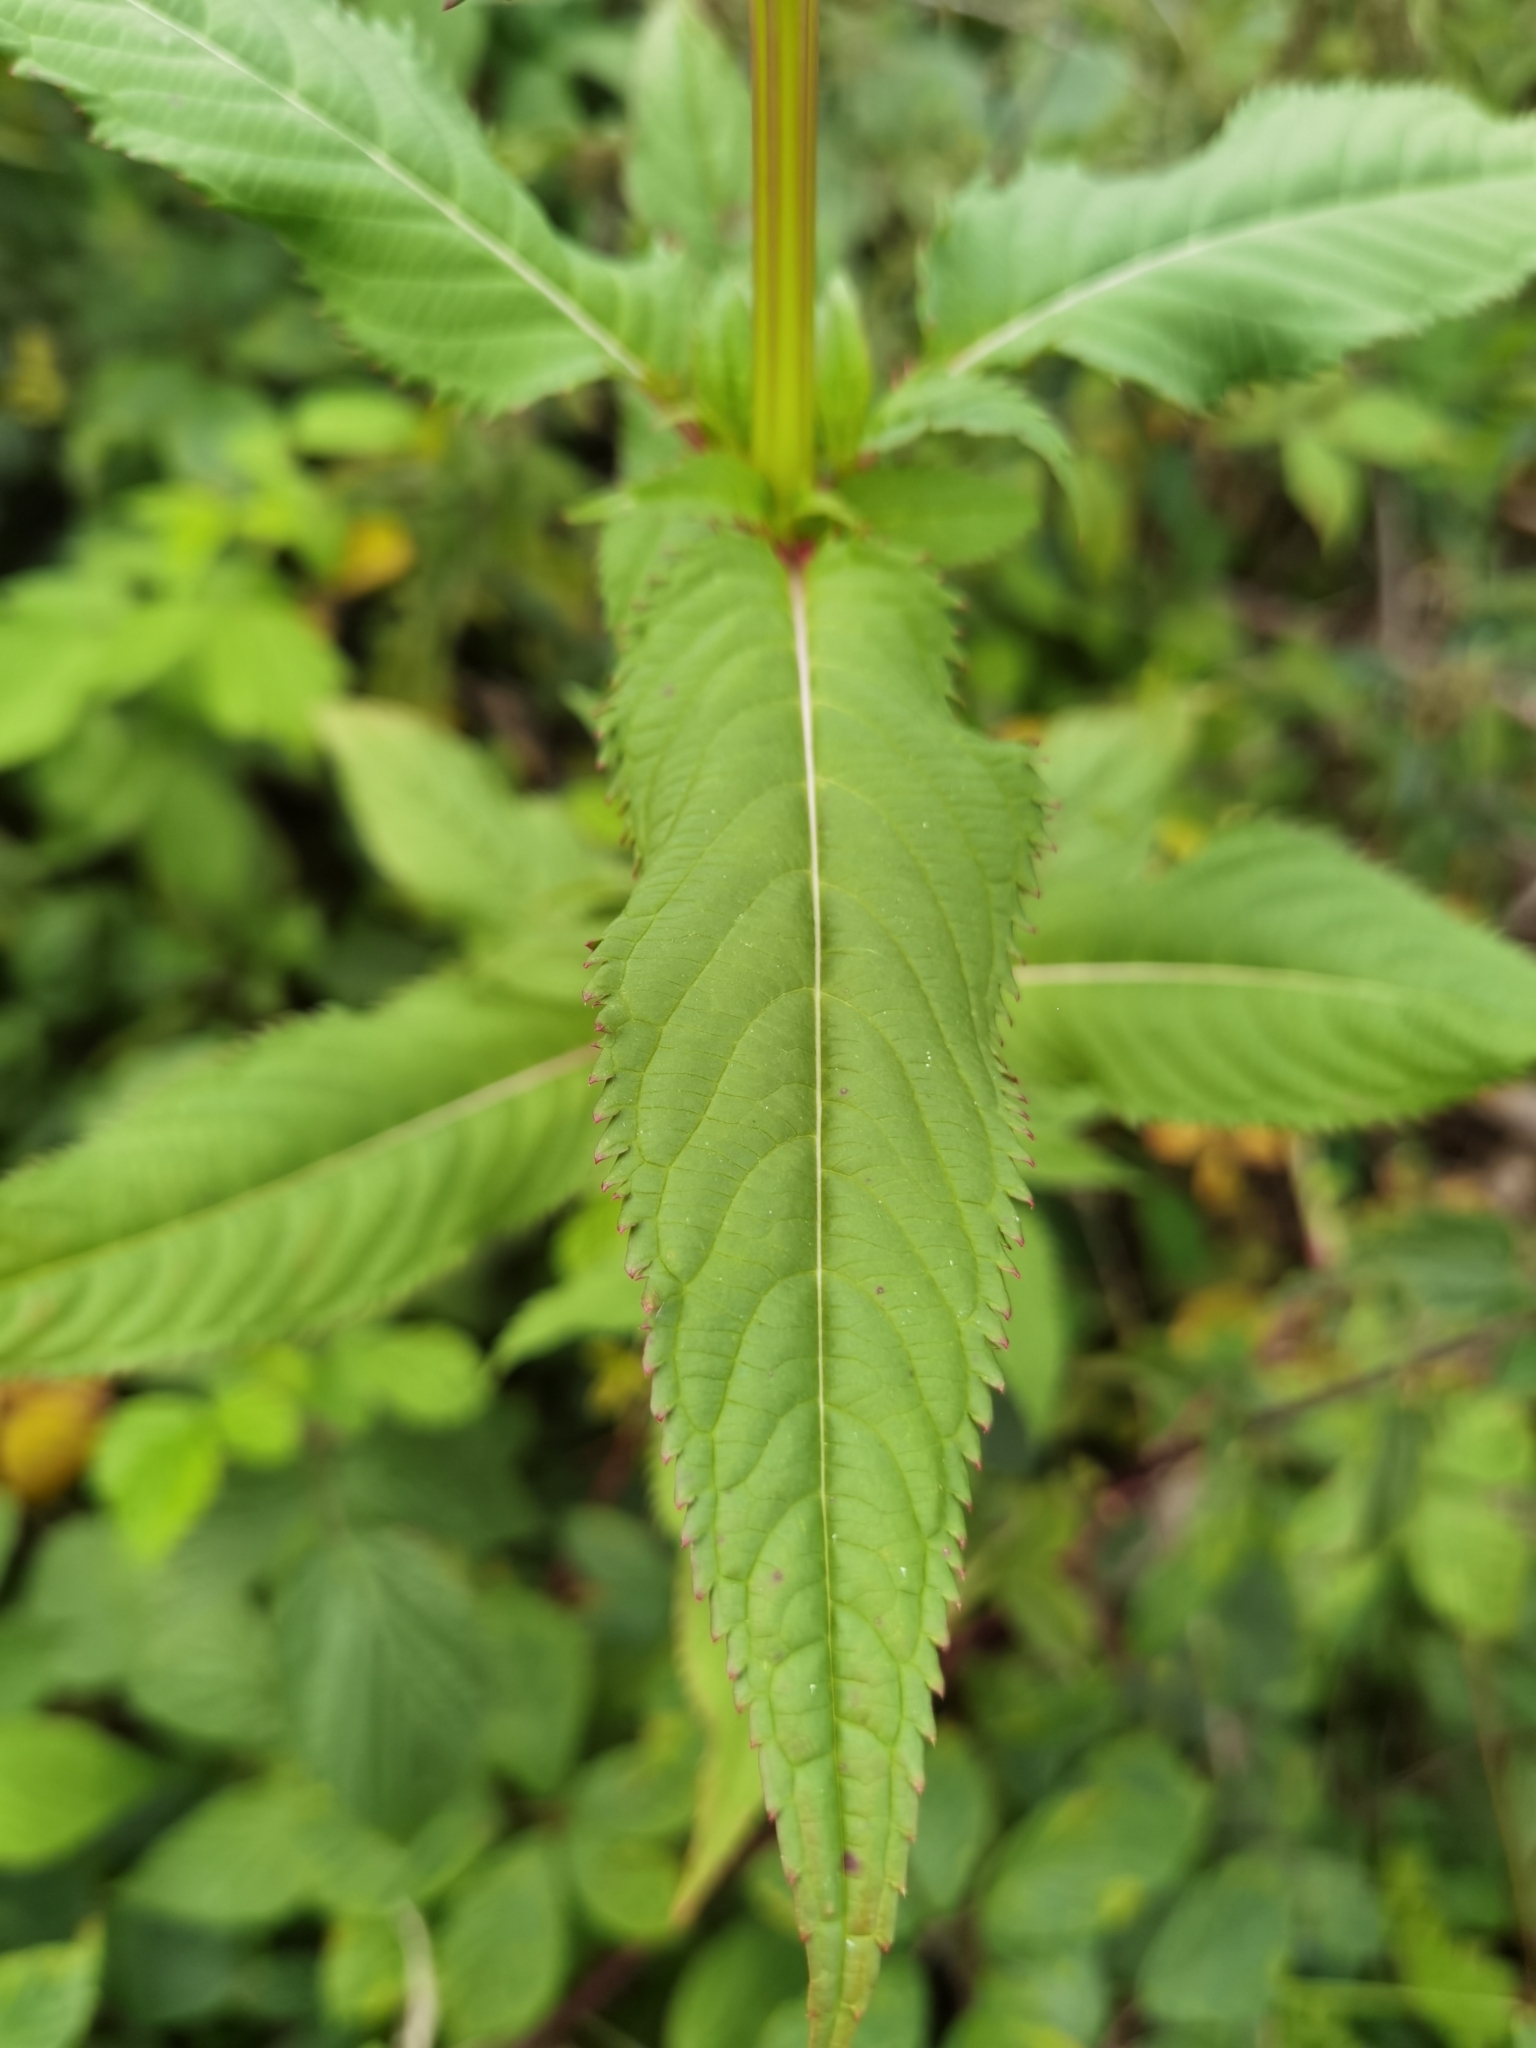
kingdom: Plantae
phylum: Tracheophyta
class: Magnoliopsida
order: Ericales
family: Balsaminaceae
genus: Impatiens
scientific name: Impatiens glandulifera
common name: Himalayan balsam
